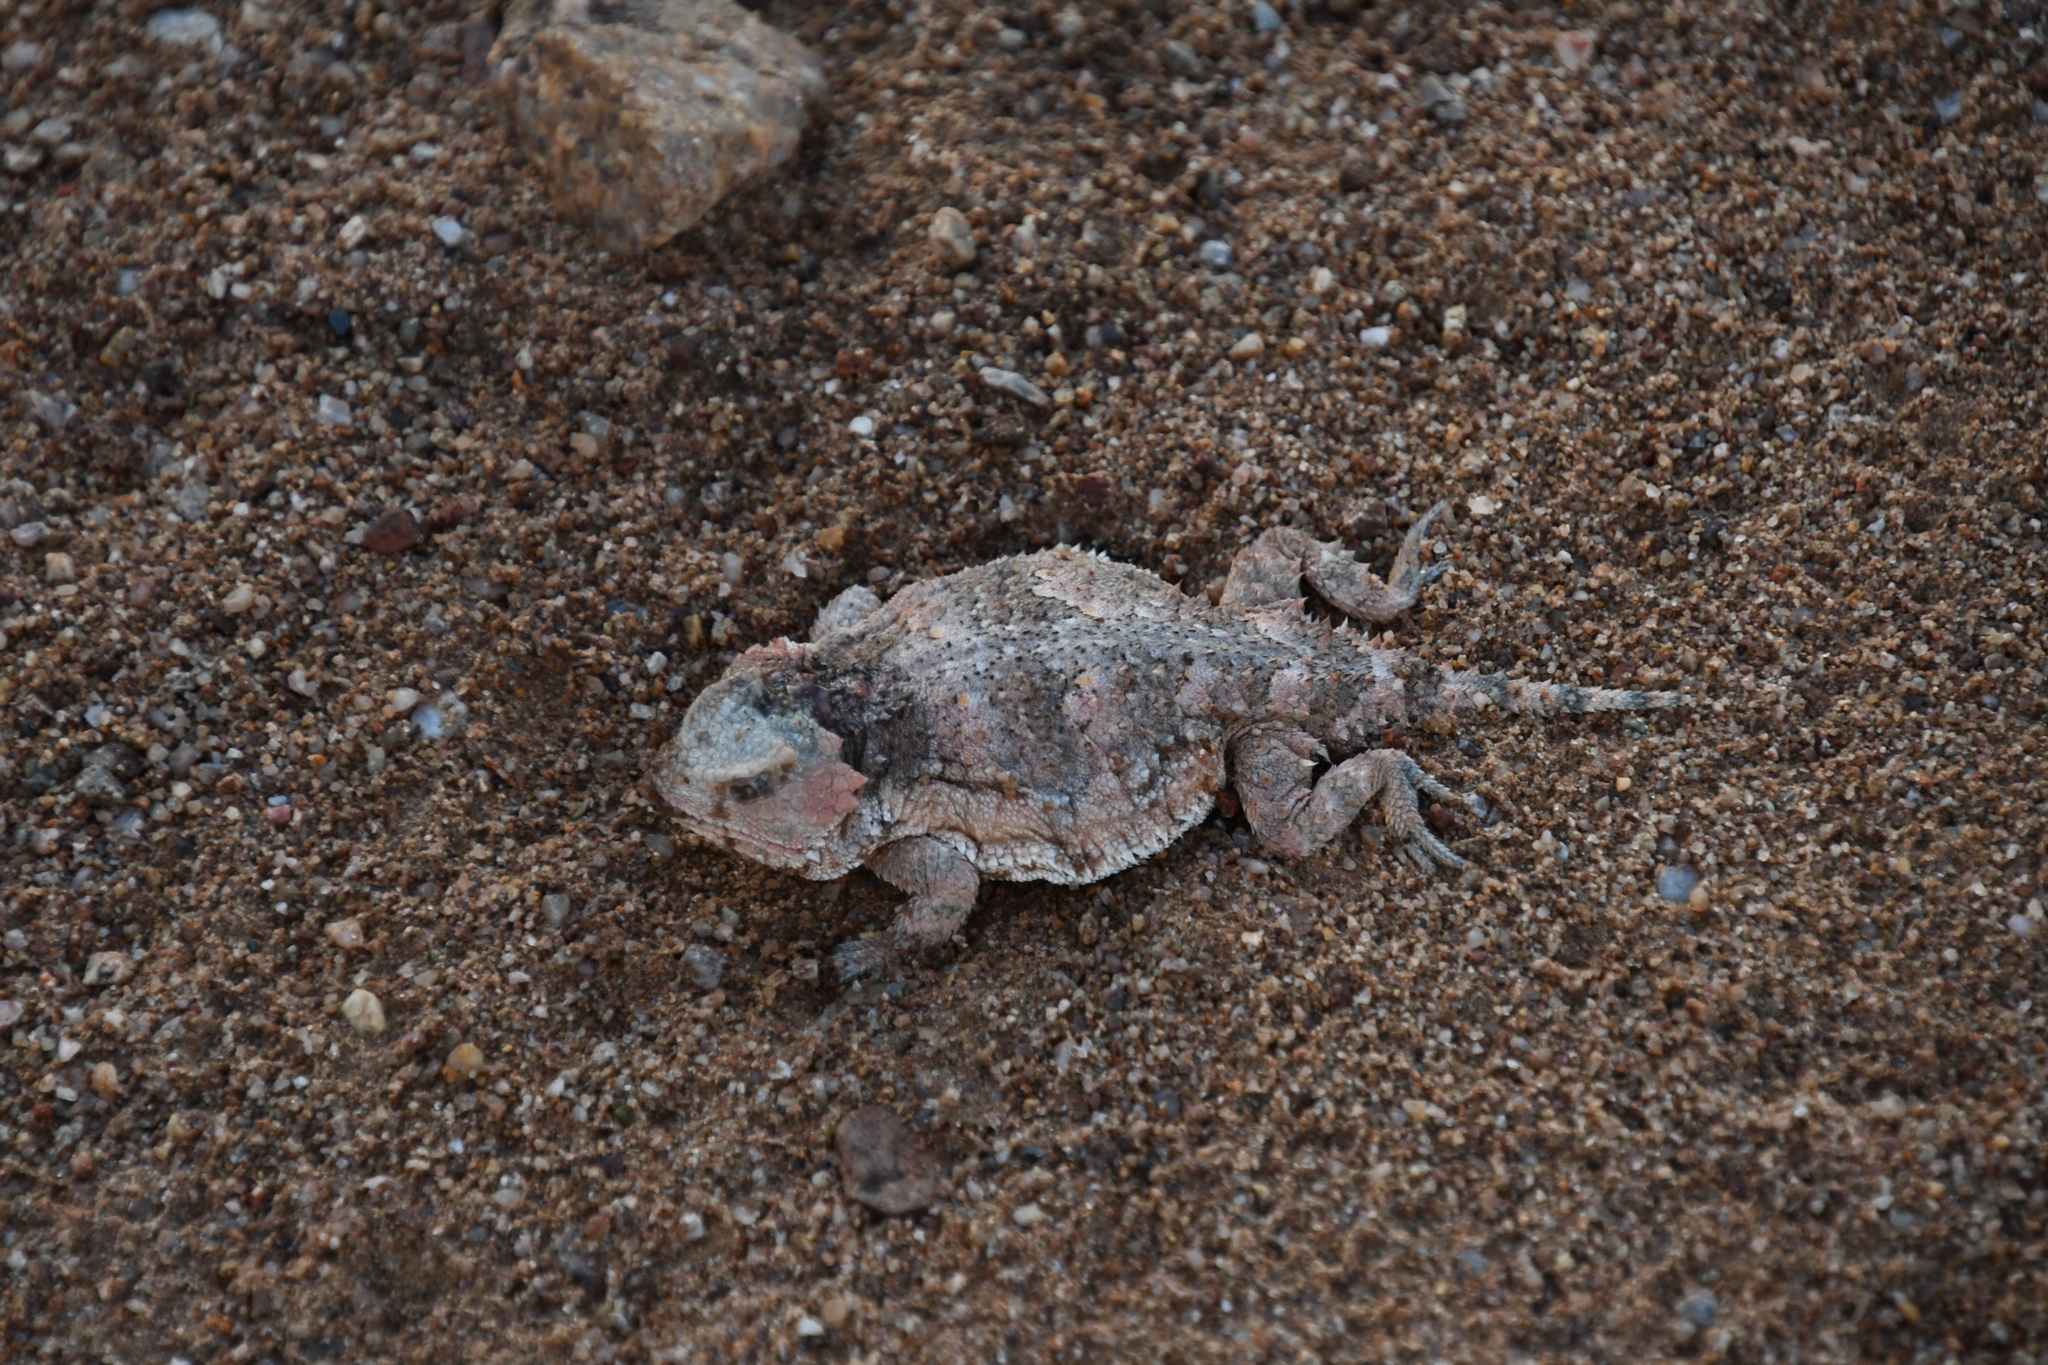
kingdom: Animalia
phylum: Chordata
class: Squamata
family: Phrynosomatidae
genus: Phrynosoma
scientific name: Phrynosoma hernandesi
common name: Greater short-horned lizard
